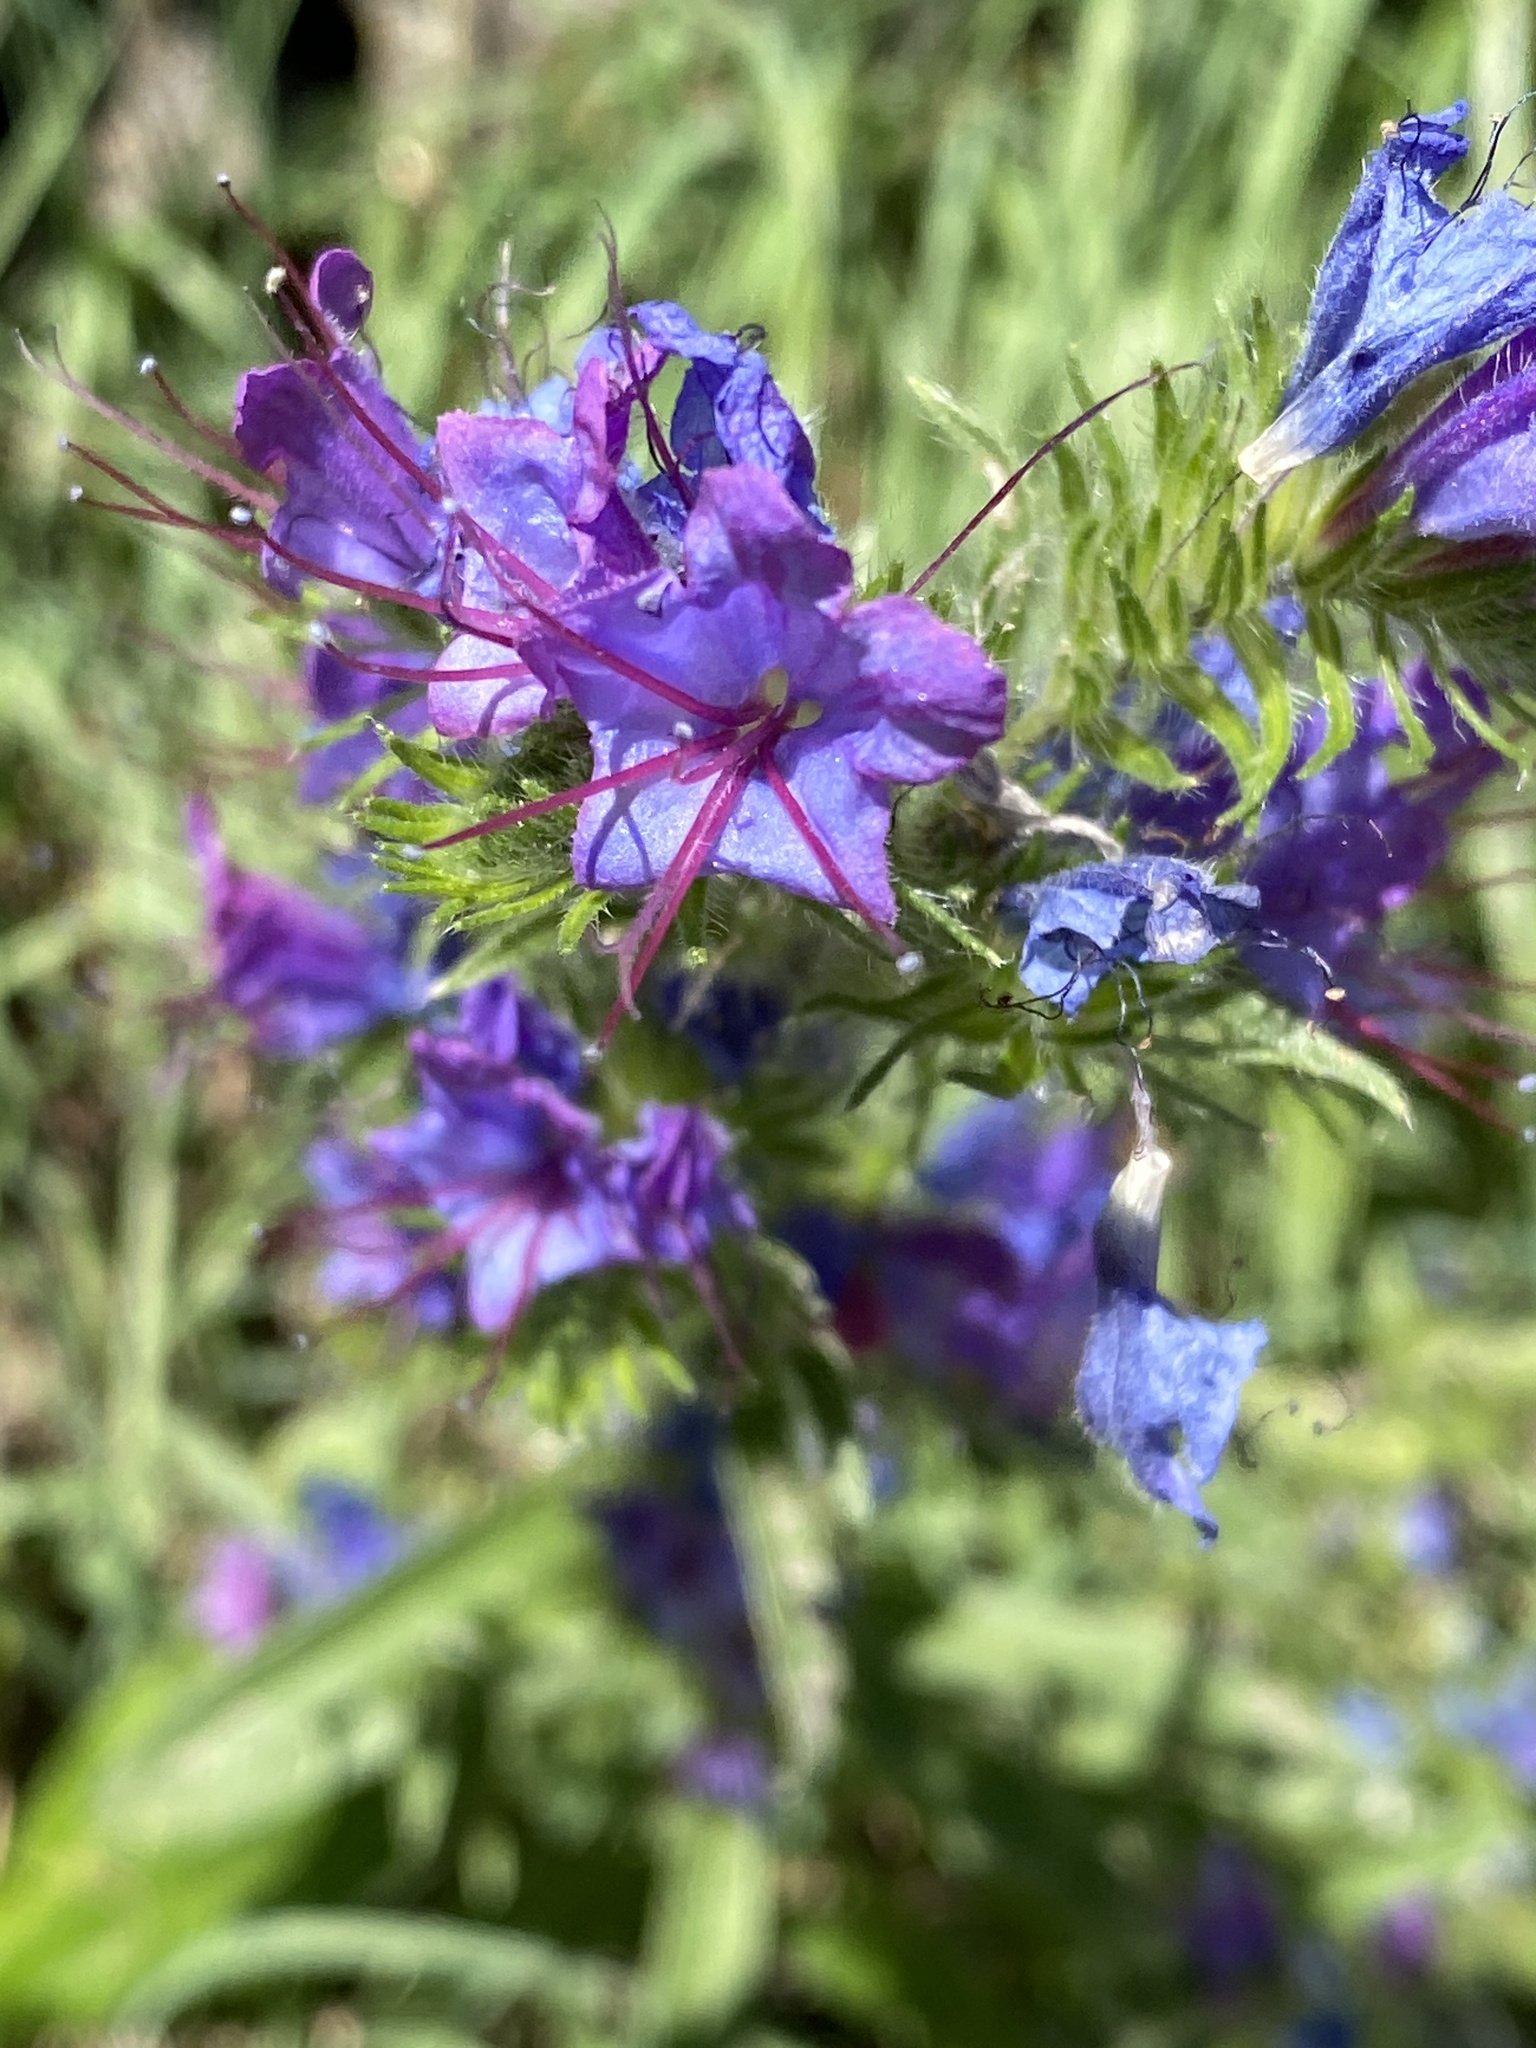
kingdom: Plantae
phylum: Tracheophyta
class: Magnoliopsida
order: Boraginales
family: Boraginaceae
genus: Echium
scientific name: Echium vulgare
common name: Common viper's bugloss
